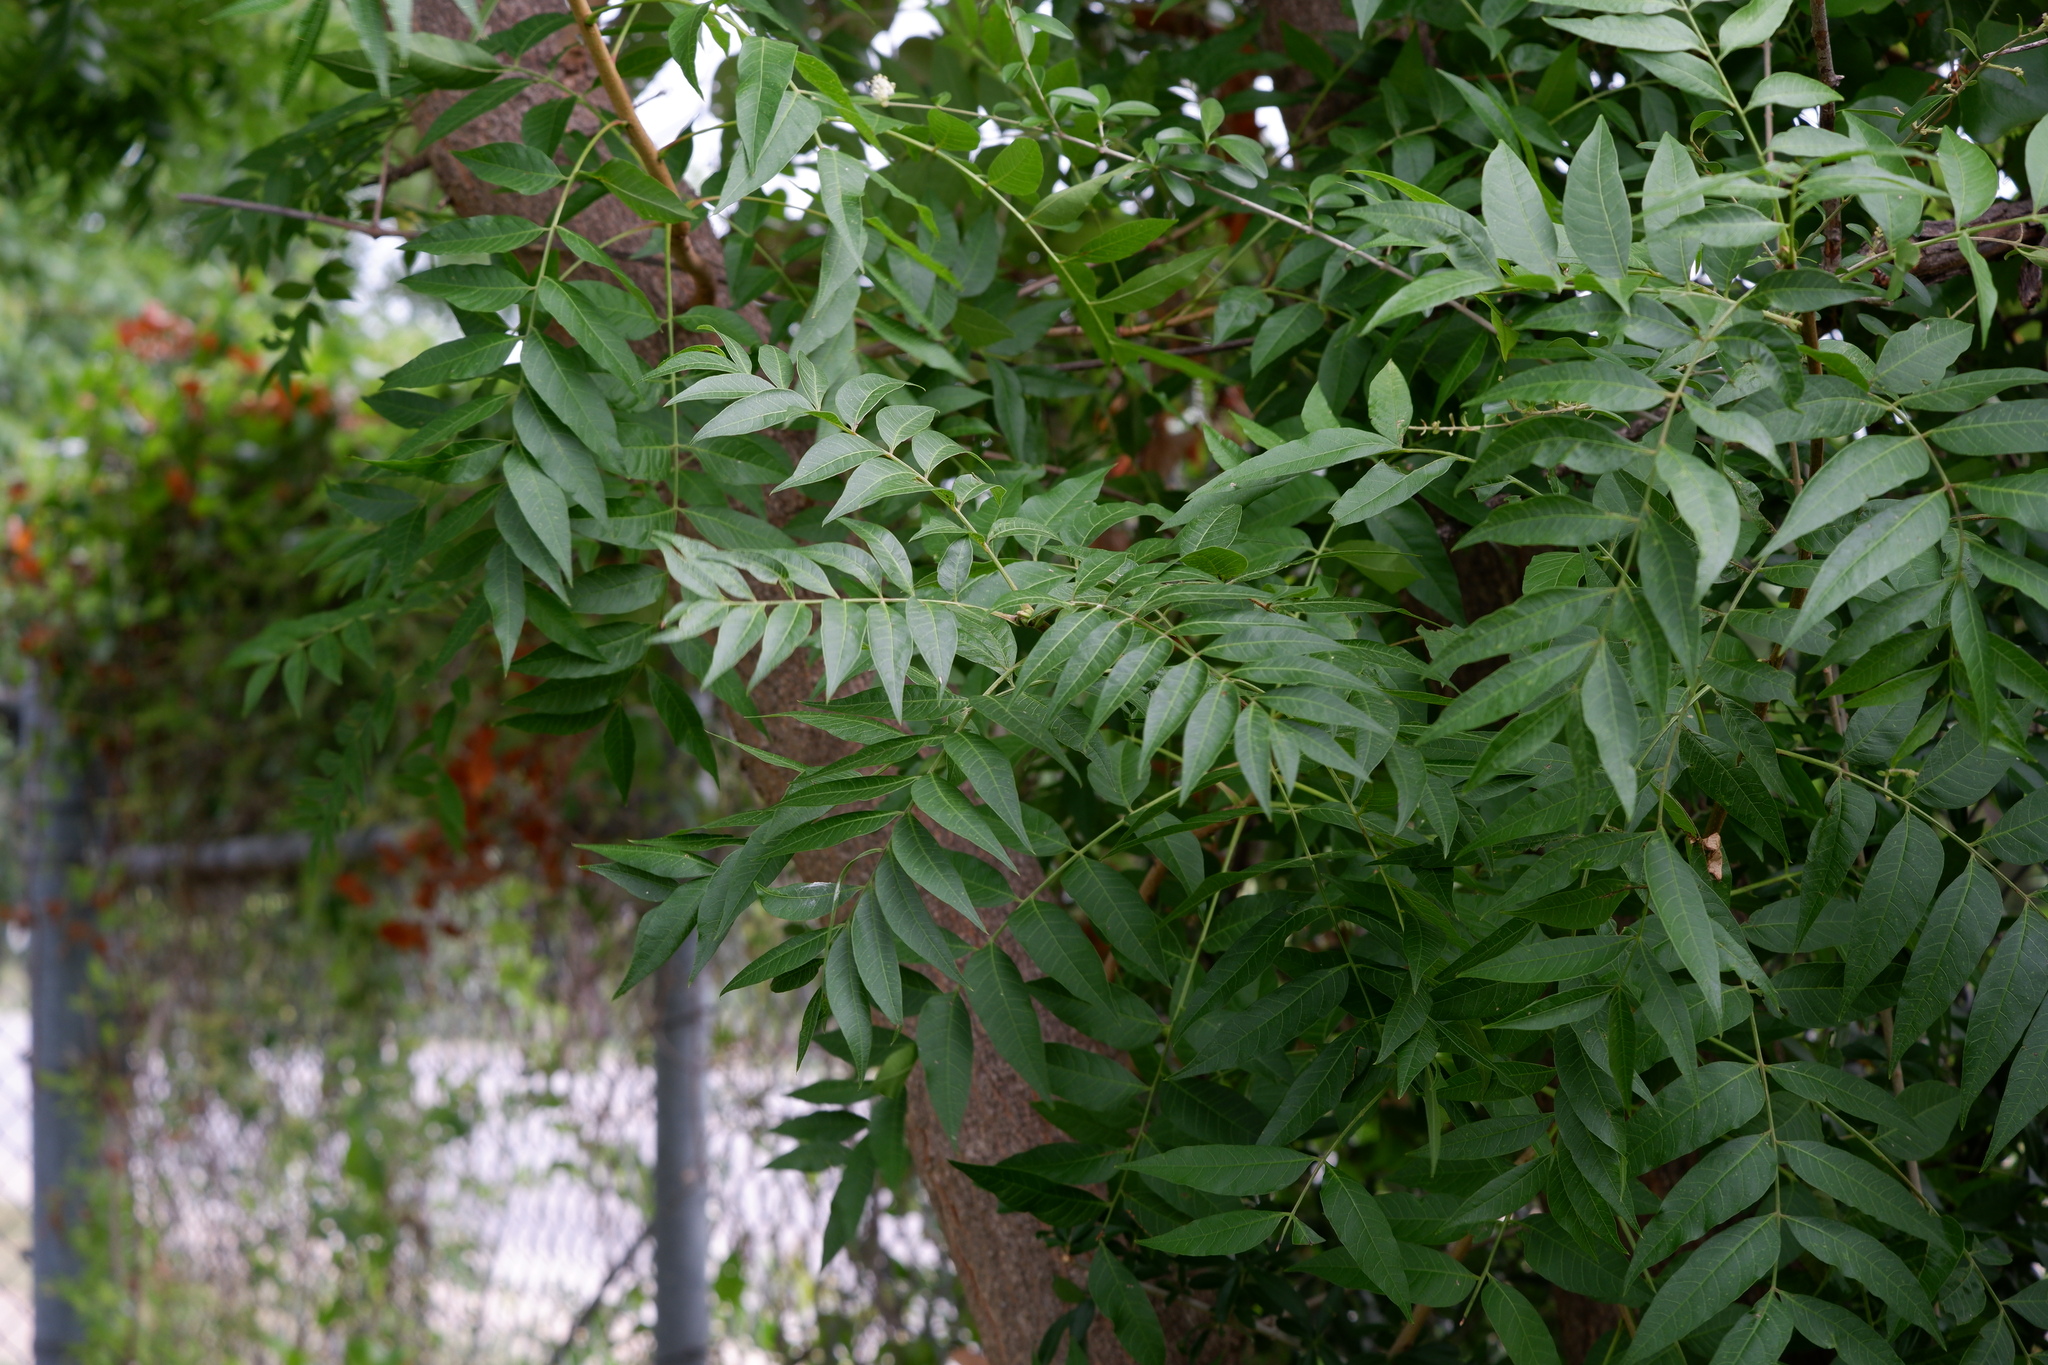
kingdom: Plantae
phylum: Tracheophyta
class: Magnoliopsida
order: Sapindales
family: Anacardiaceae
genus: Pistacia
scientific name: Pistacia chinensis
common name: Chinese pistache
